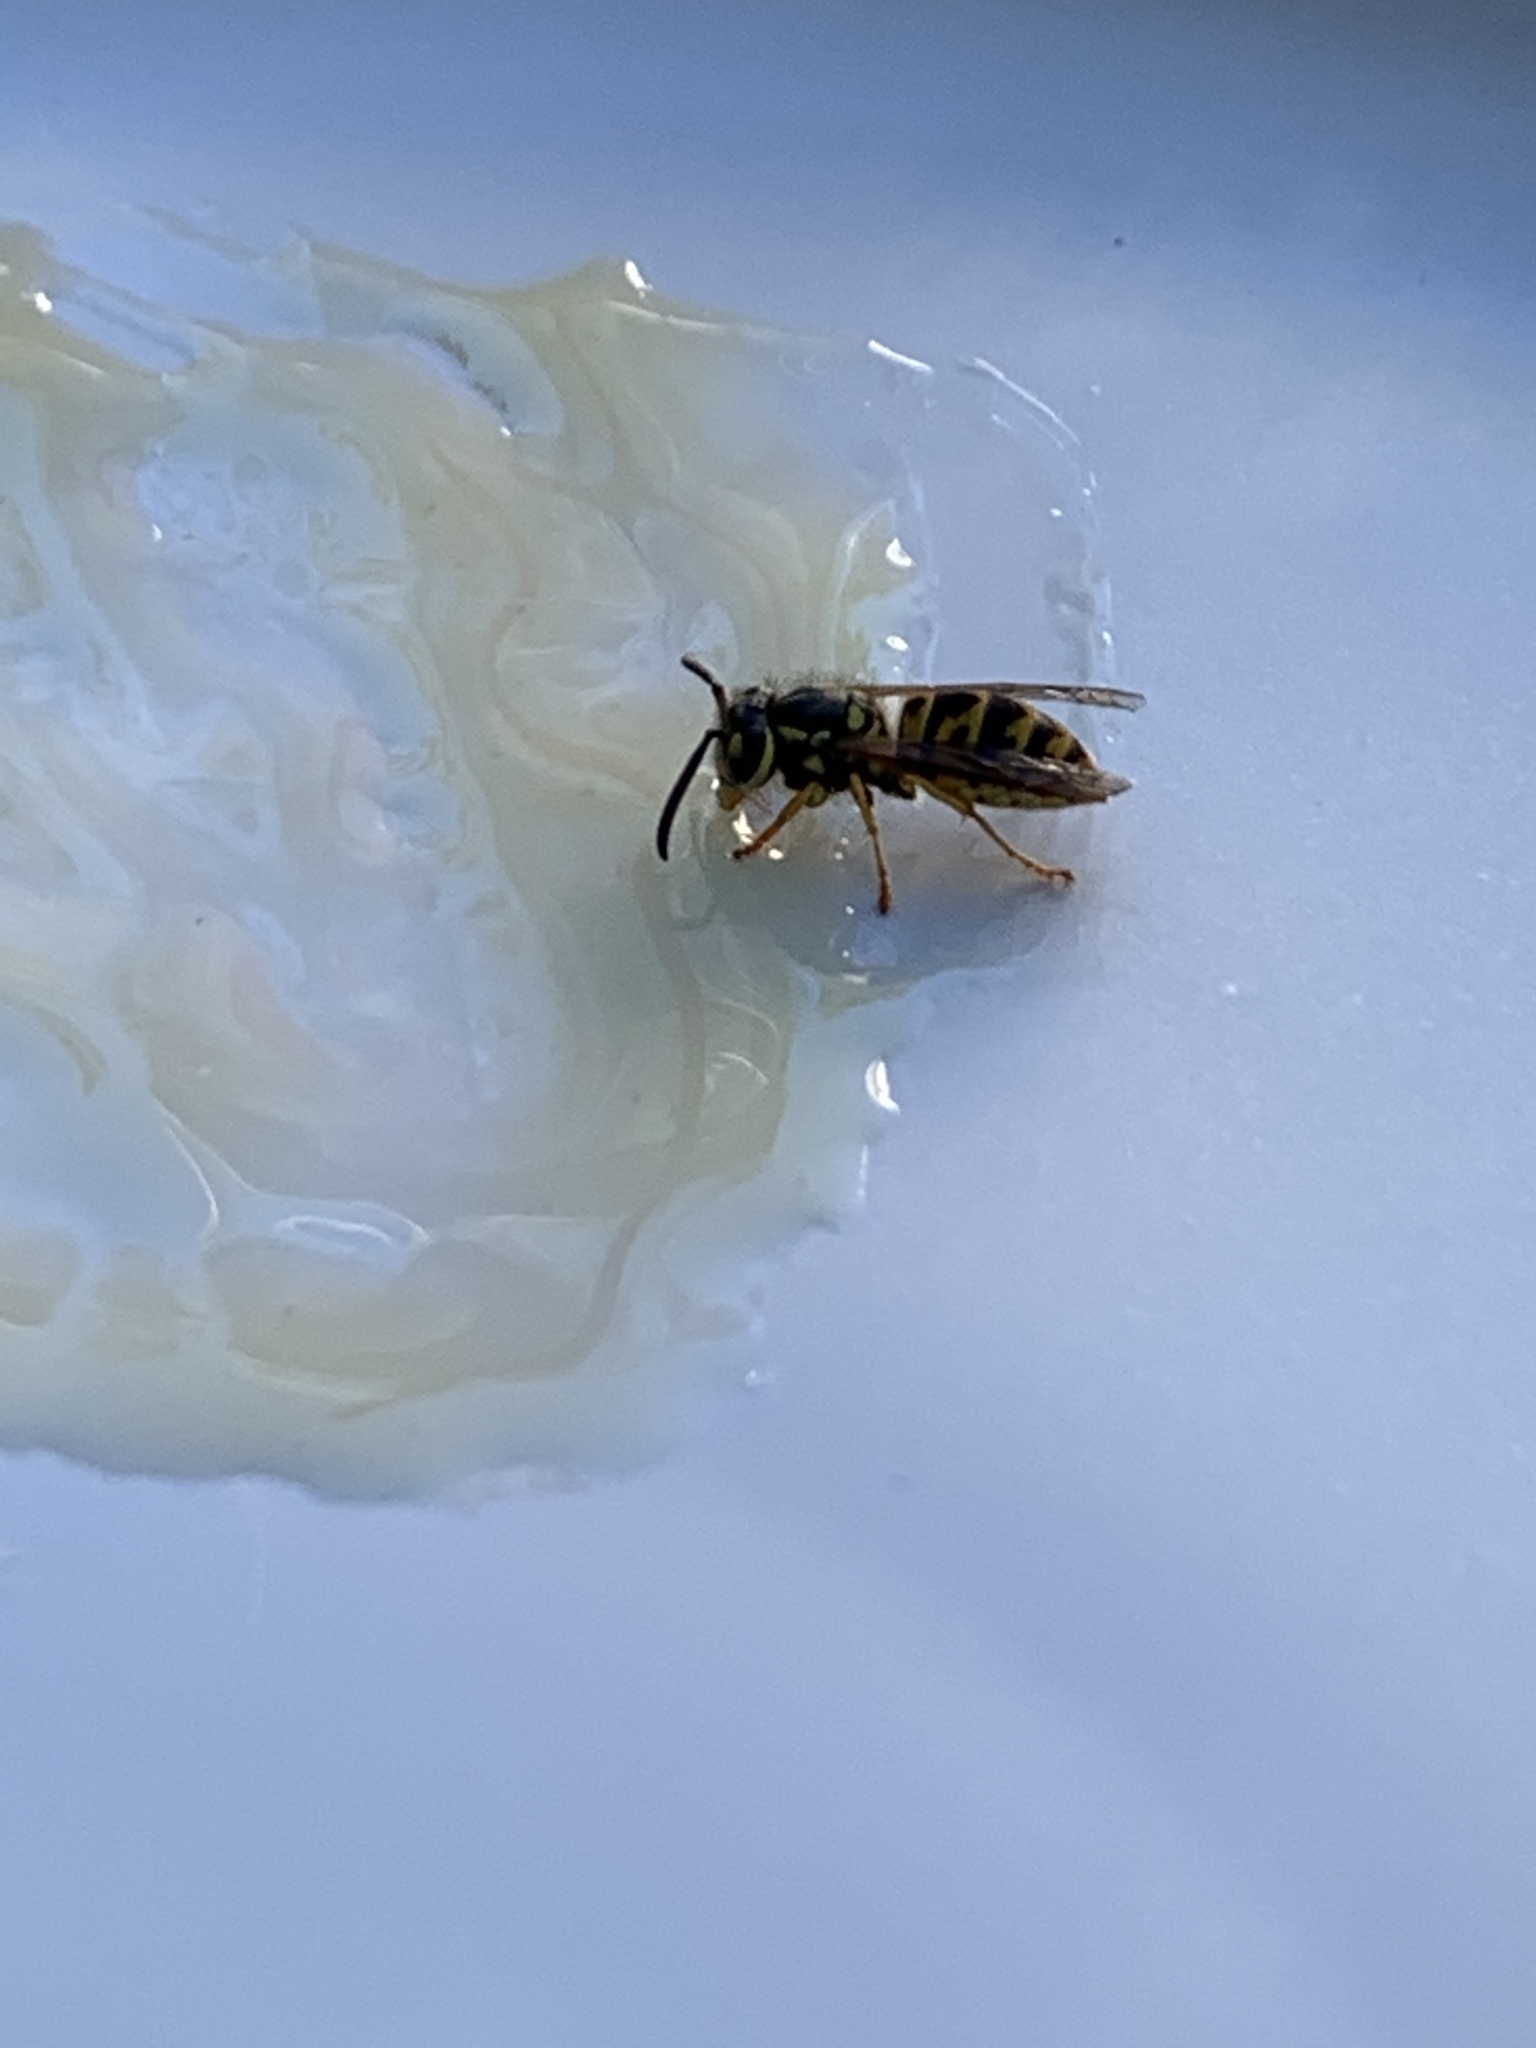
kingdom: Animalia
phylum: Arthropoda
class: Insecta
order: Hymenoptera
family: Vespidae
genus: Vespula
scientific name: Vespula germanica
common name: German wasp
